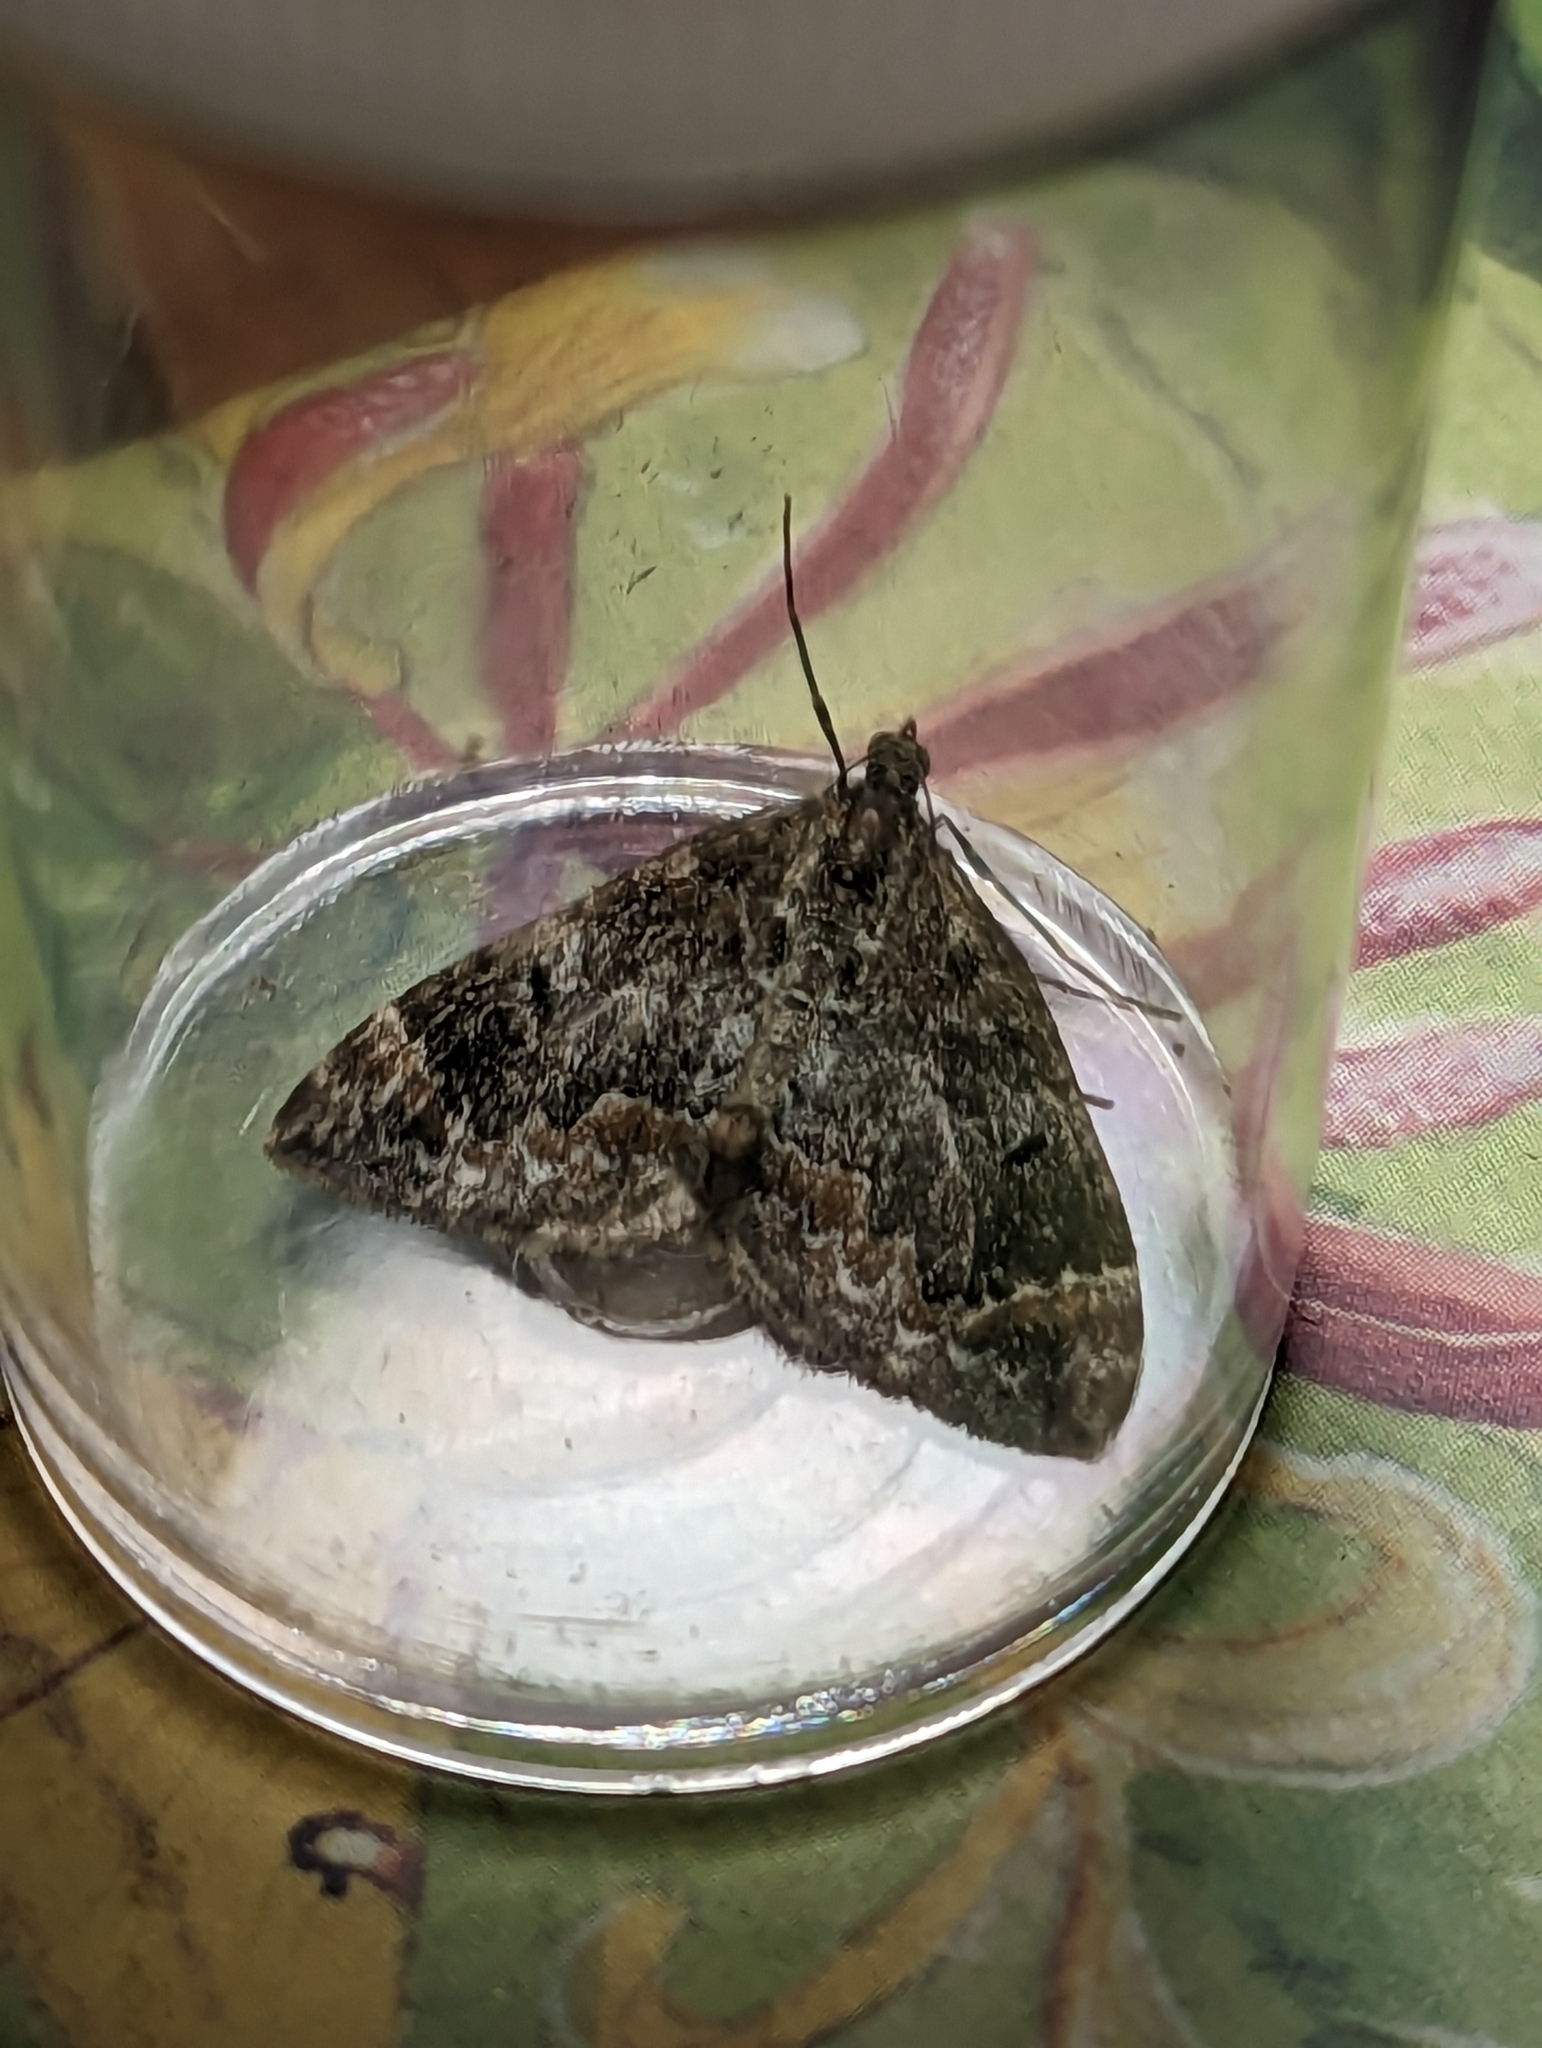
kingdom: Animalia
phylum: Arthropoda
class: Insecta
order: Lepidoptera
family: Geometridae
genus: Dysstroma
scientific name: Dysstroma truncata
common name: Common marbled carpet
